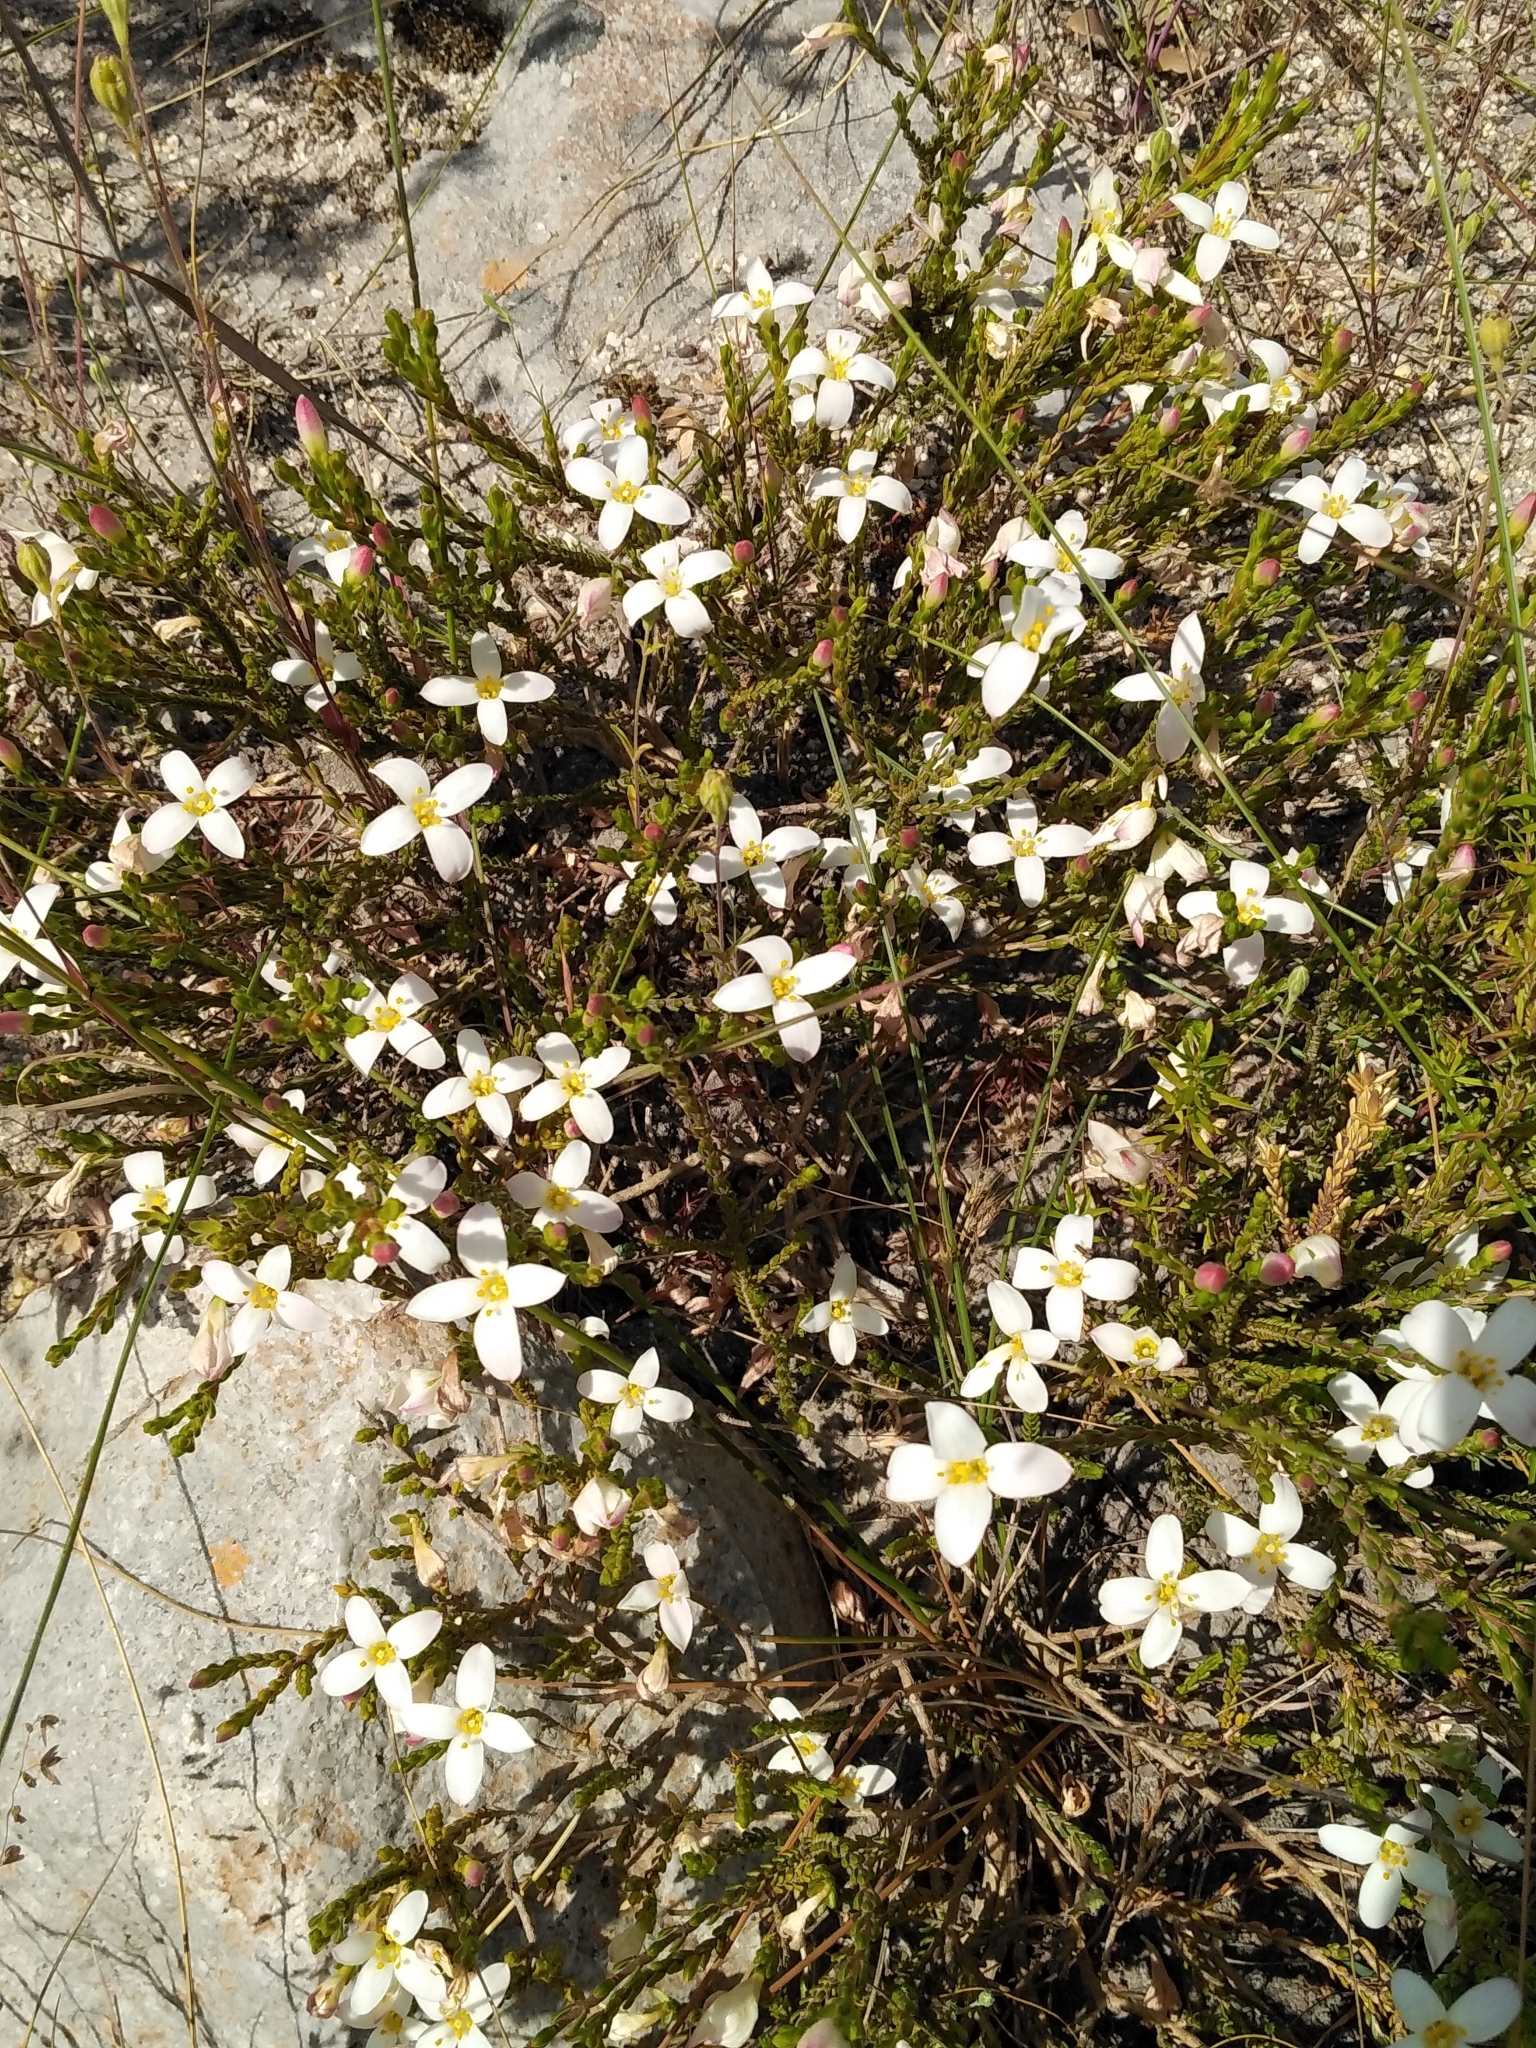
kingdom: Plantae
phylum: Tracheophyta
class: Magnoliopsida
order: Malvales
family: Thymelaeaceae
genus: Lachnaea
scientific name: Lachnaea uniflora
